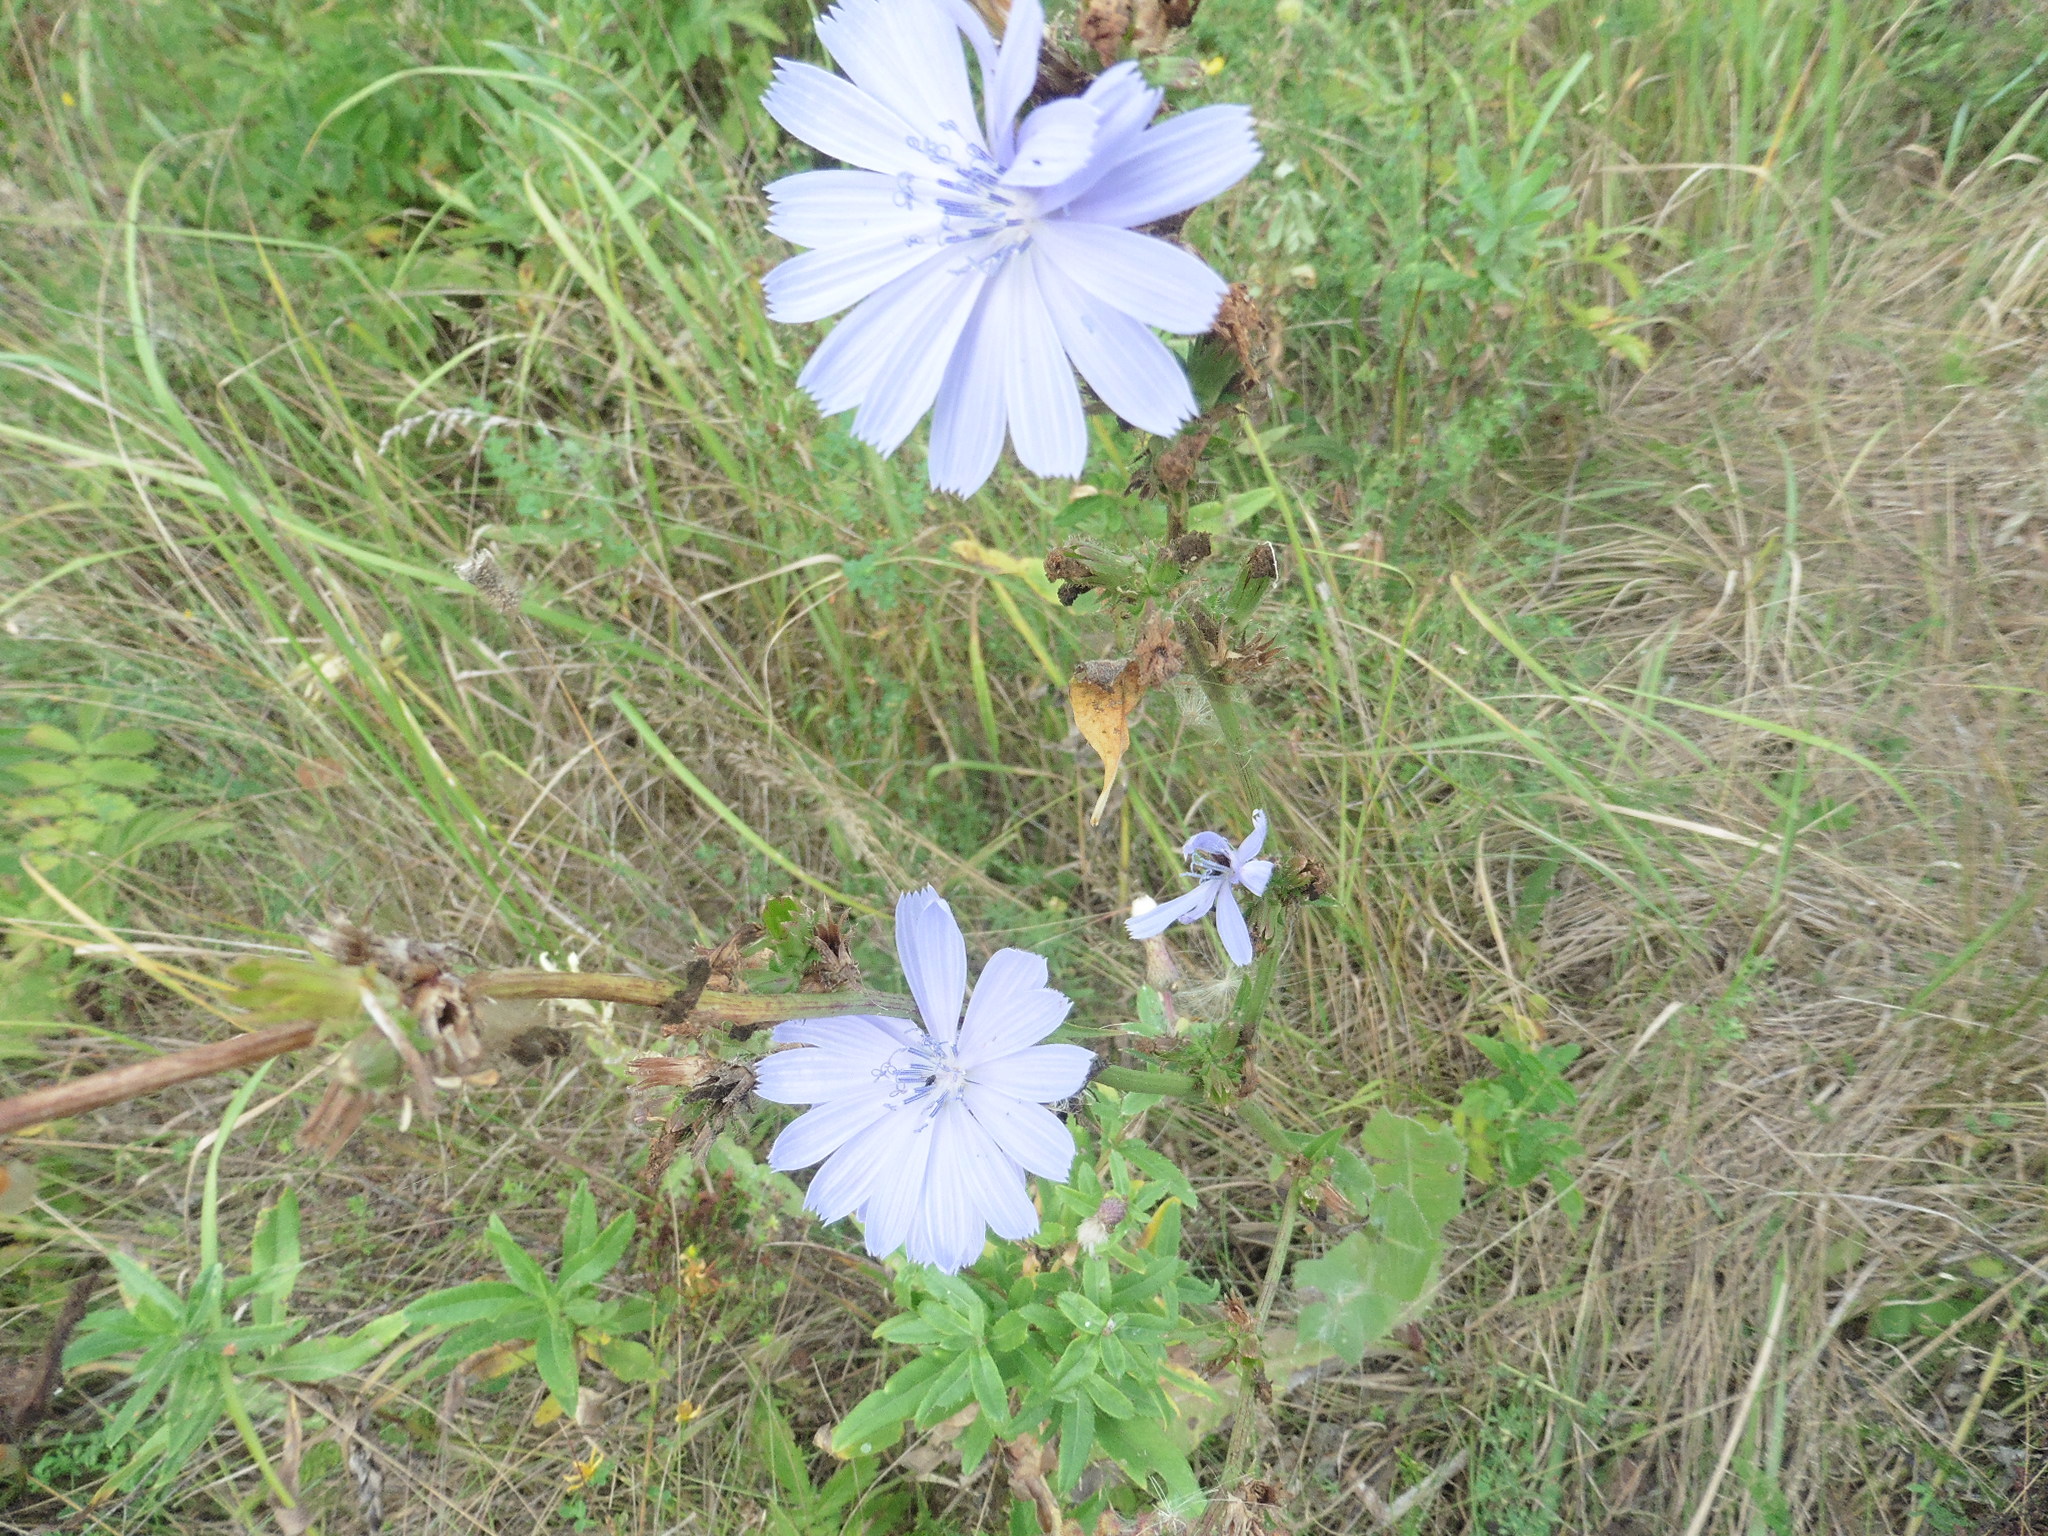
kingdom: Plantae
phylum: Tracheophyta
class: Magnoliopsida
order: Asterales
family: Asteraceae
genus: Cichorium
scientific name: Cichorium intybus
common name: Chicory
